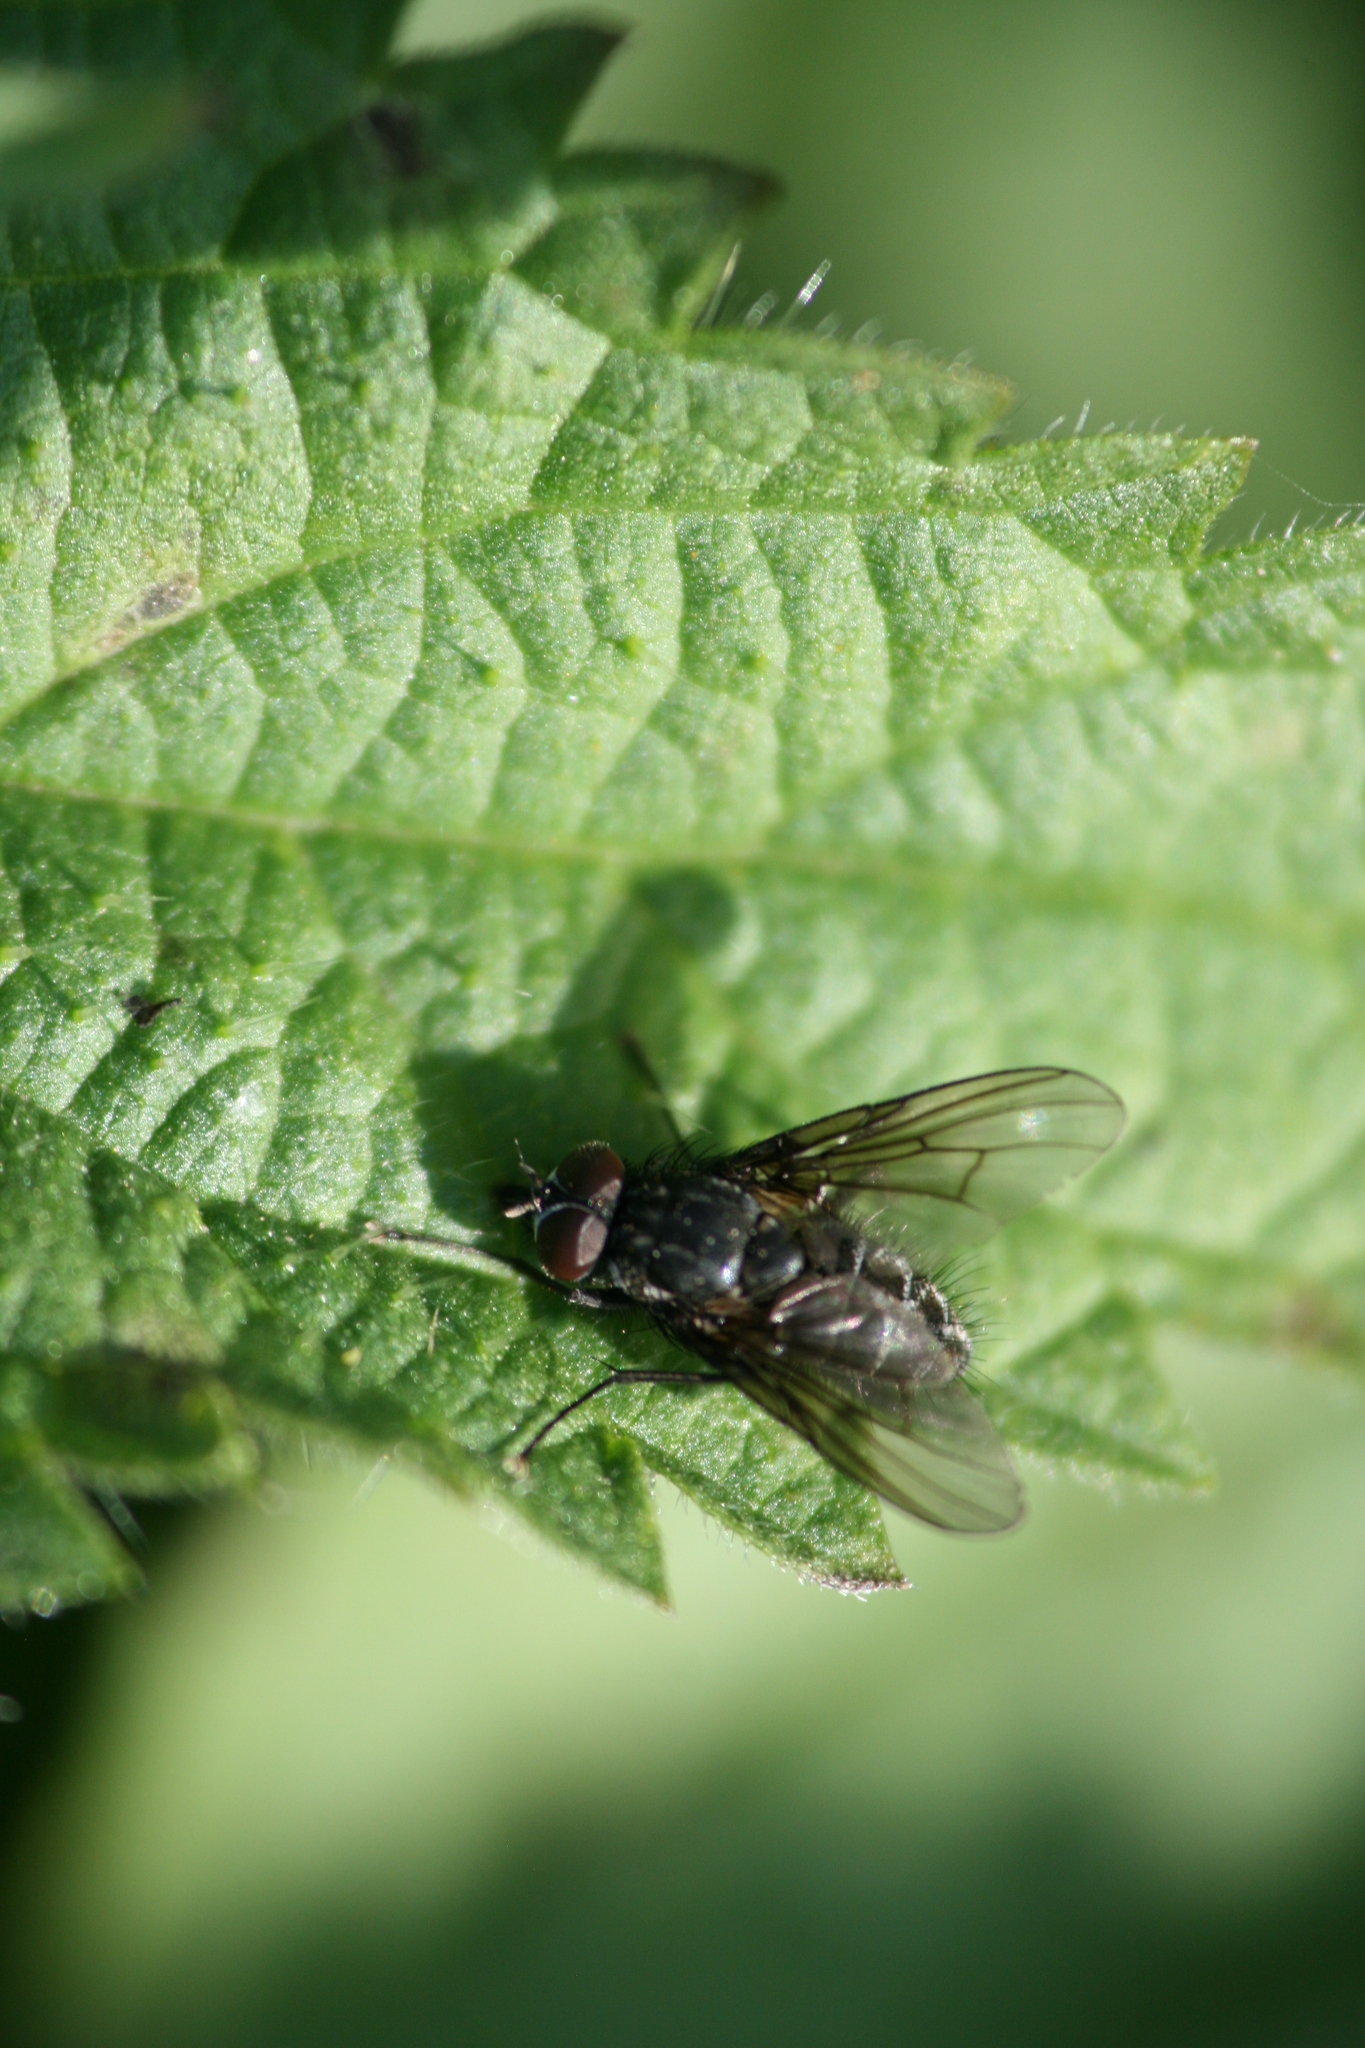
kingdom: Animalia
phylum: Arthropoda
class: Insecta
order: Diptera
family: Muscidae
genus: Helina
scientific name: Helina latitarsis
